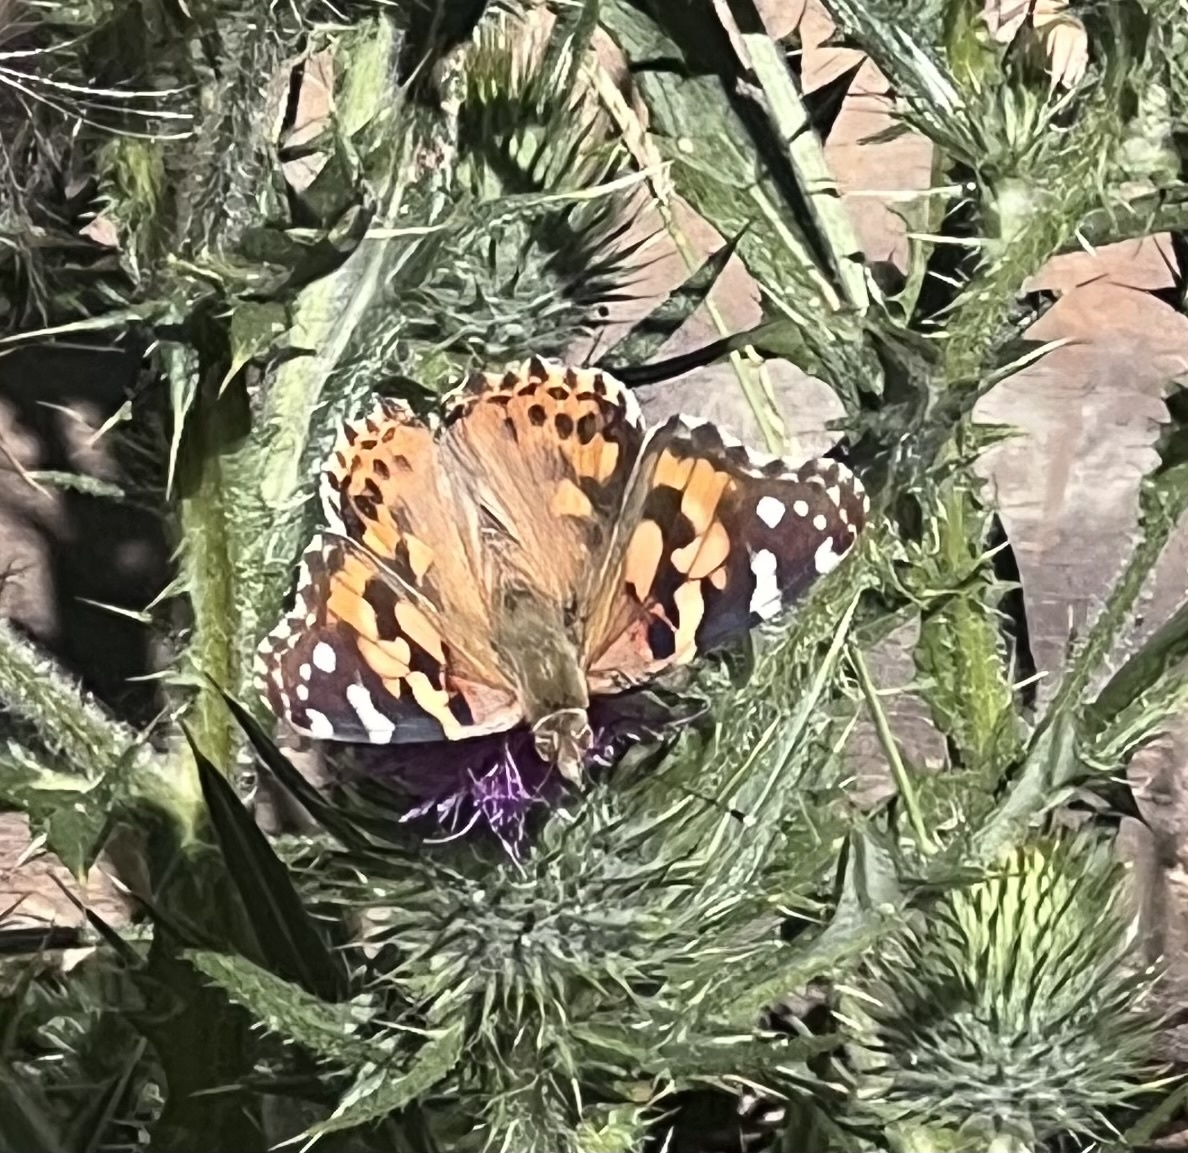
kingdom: Animalia
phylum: Arthropoda
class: Insecta
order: Lepidoptera
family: Nymphalidae
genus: Vanessa
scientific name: Vanessa cardui
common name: Painted lady
